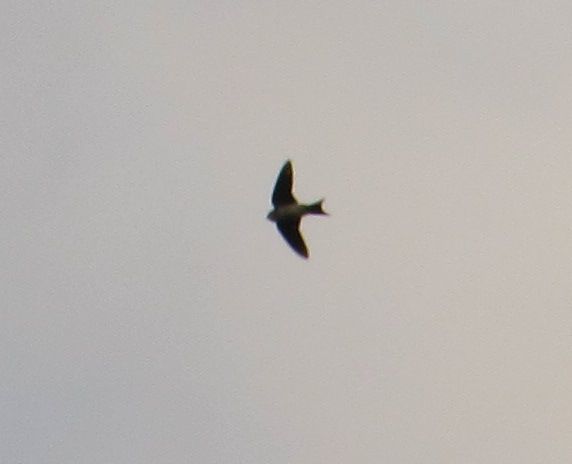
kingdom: Animalia
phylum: Chordata
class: Aves
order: Passeriformes
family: Hirundinidae
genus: Delichon
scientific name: Delichon urbicum
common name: Common house martin
